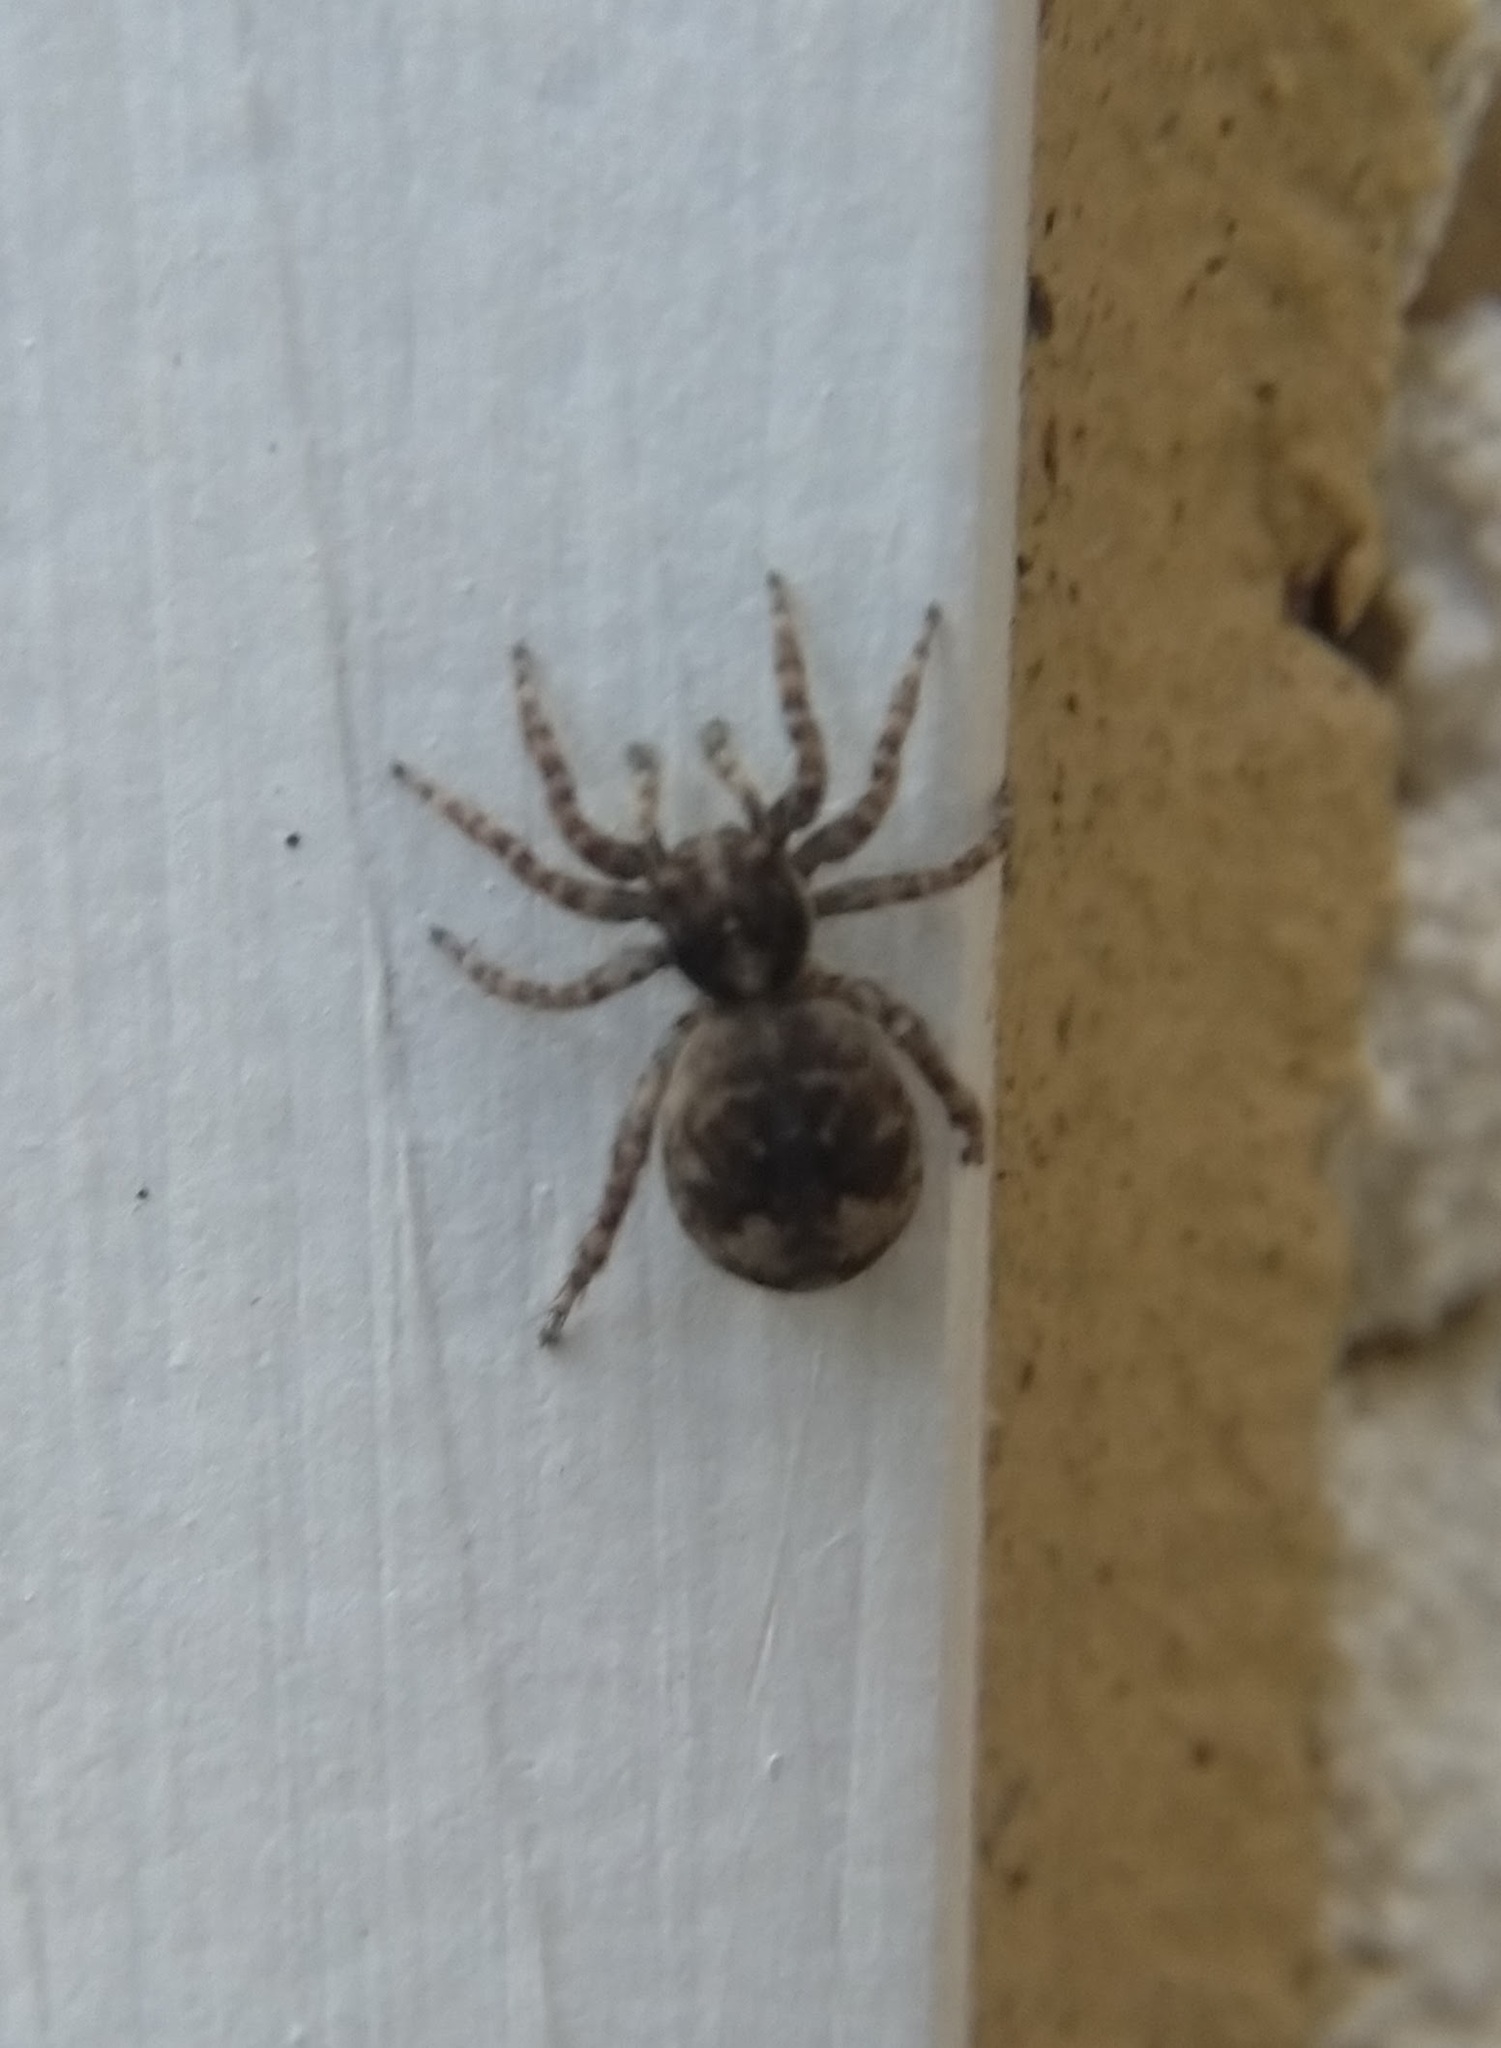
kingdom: Animalia
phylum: Arthropoda
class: Arachnida
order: Araneae
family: Salticidae
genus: Attulus
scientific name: Attulus fasciger
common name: Asiatic wall jumping spider
